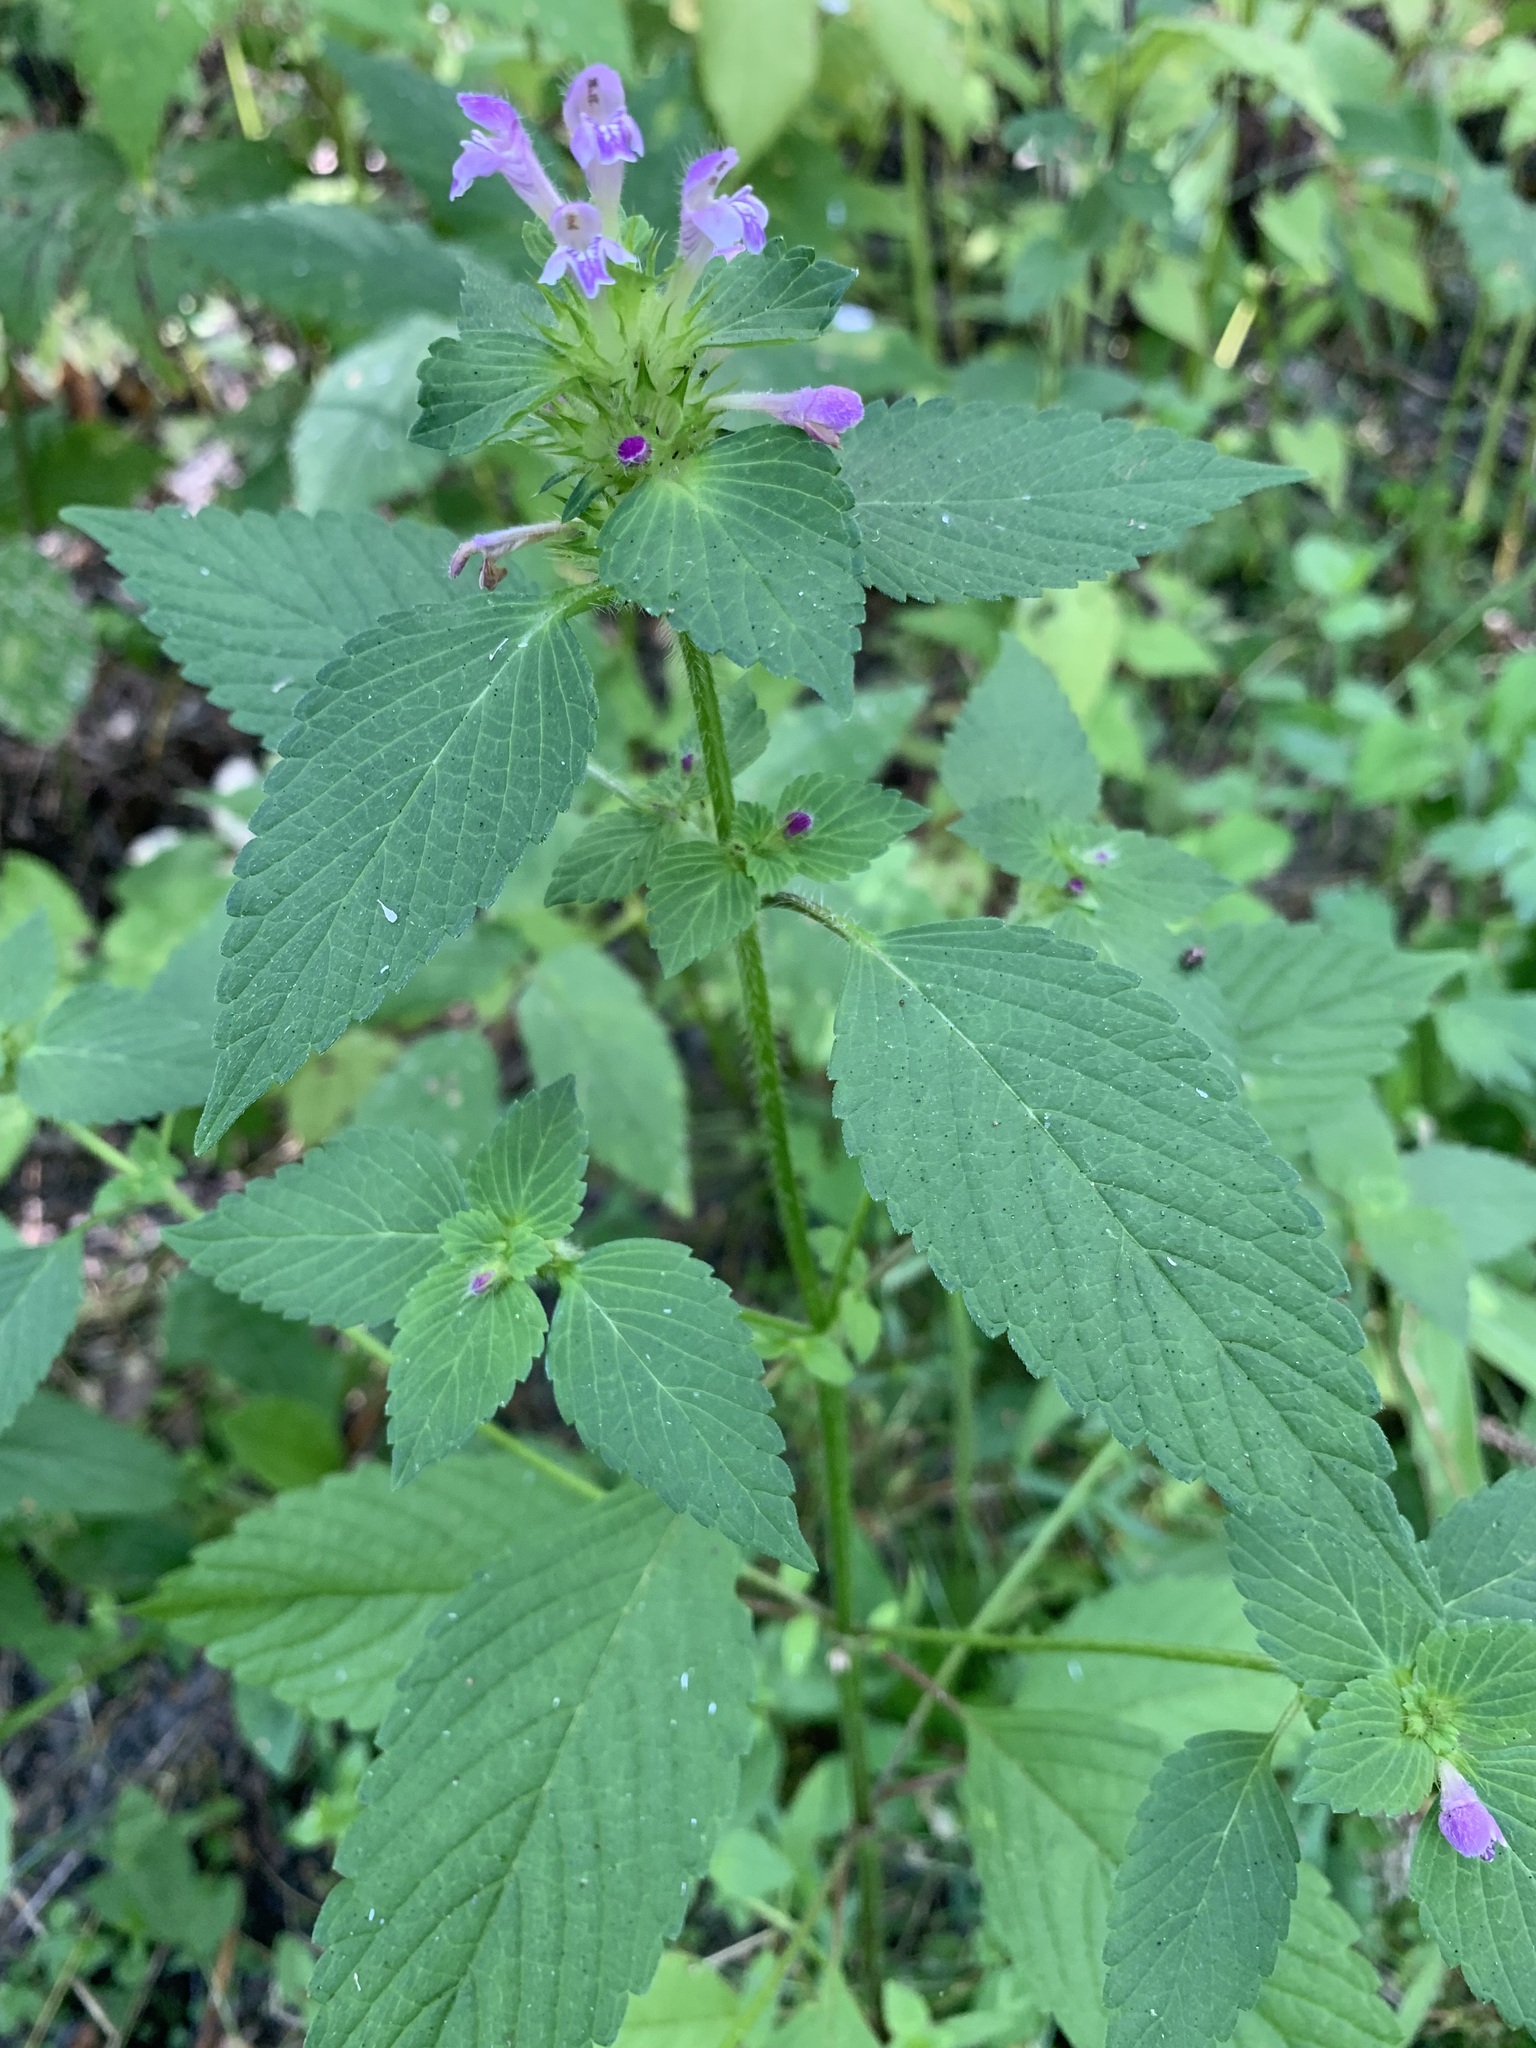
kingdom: Plantae
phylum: Tracheophyta
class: Magnoliopsida
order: Lamiales
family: Lamiaceae
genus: Galeopsis
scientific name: Galeopsis bifida
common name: Bifid hemp-nettle
